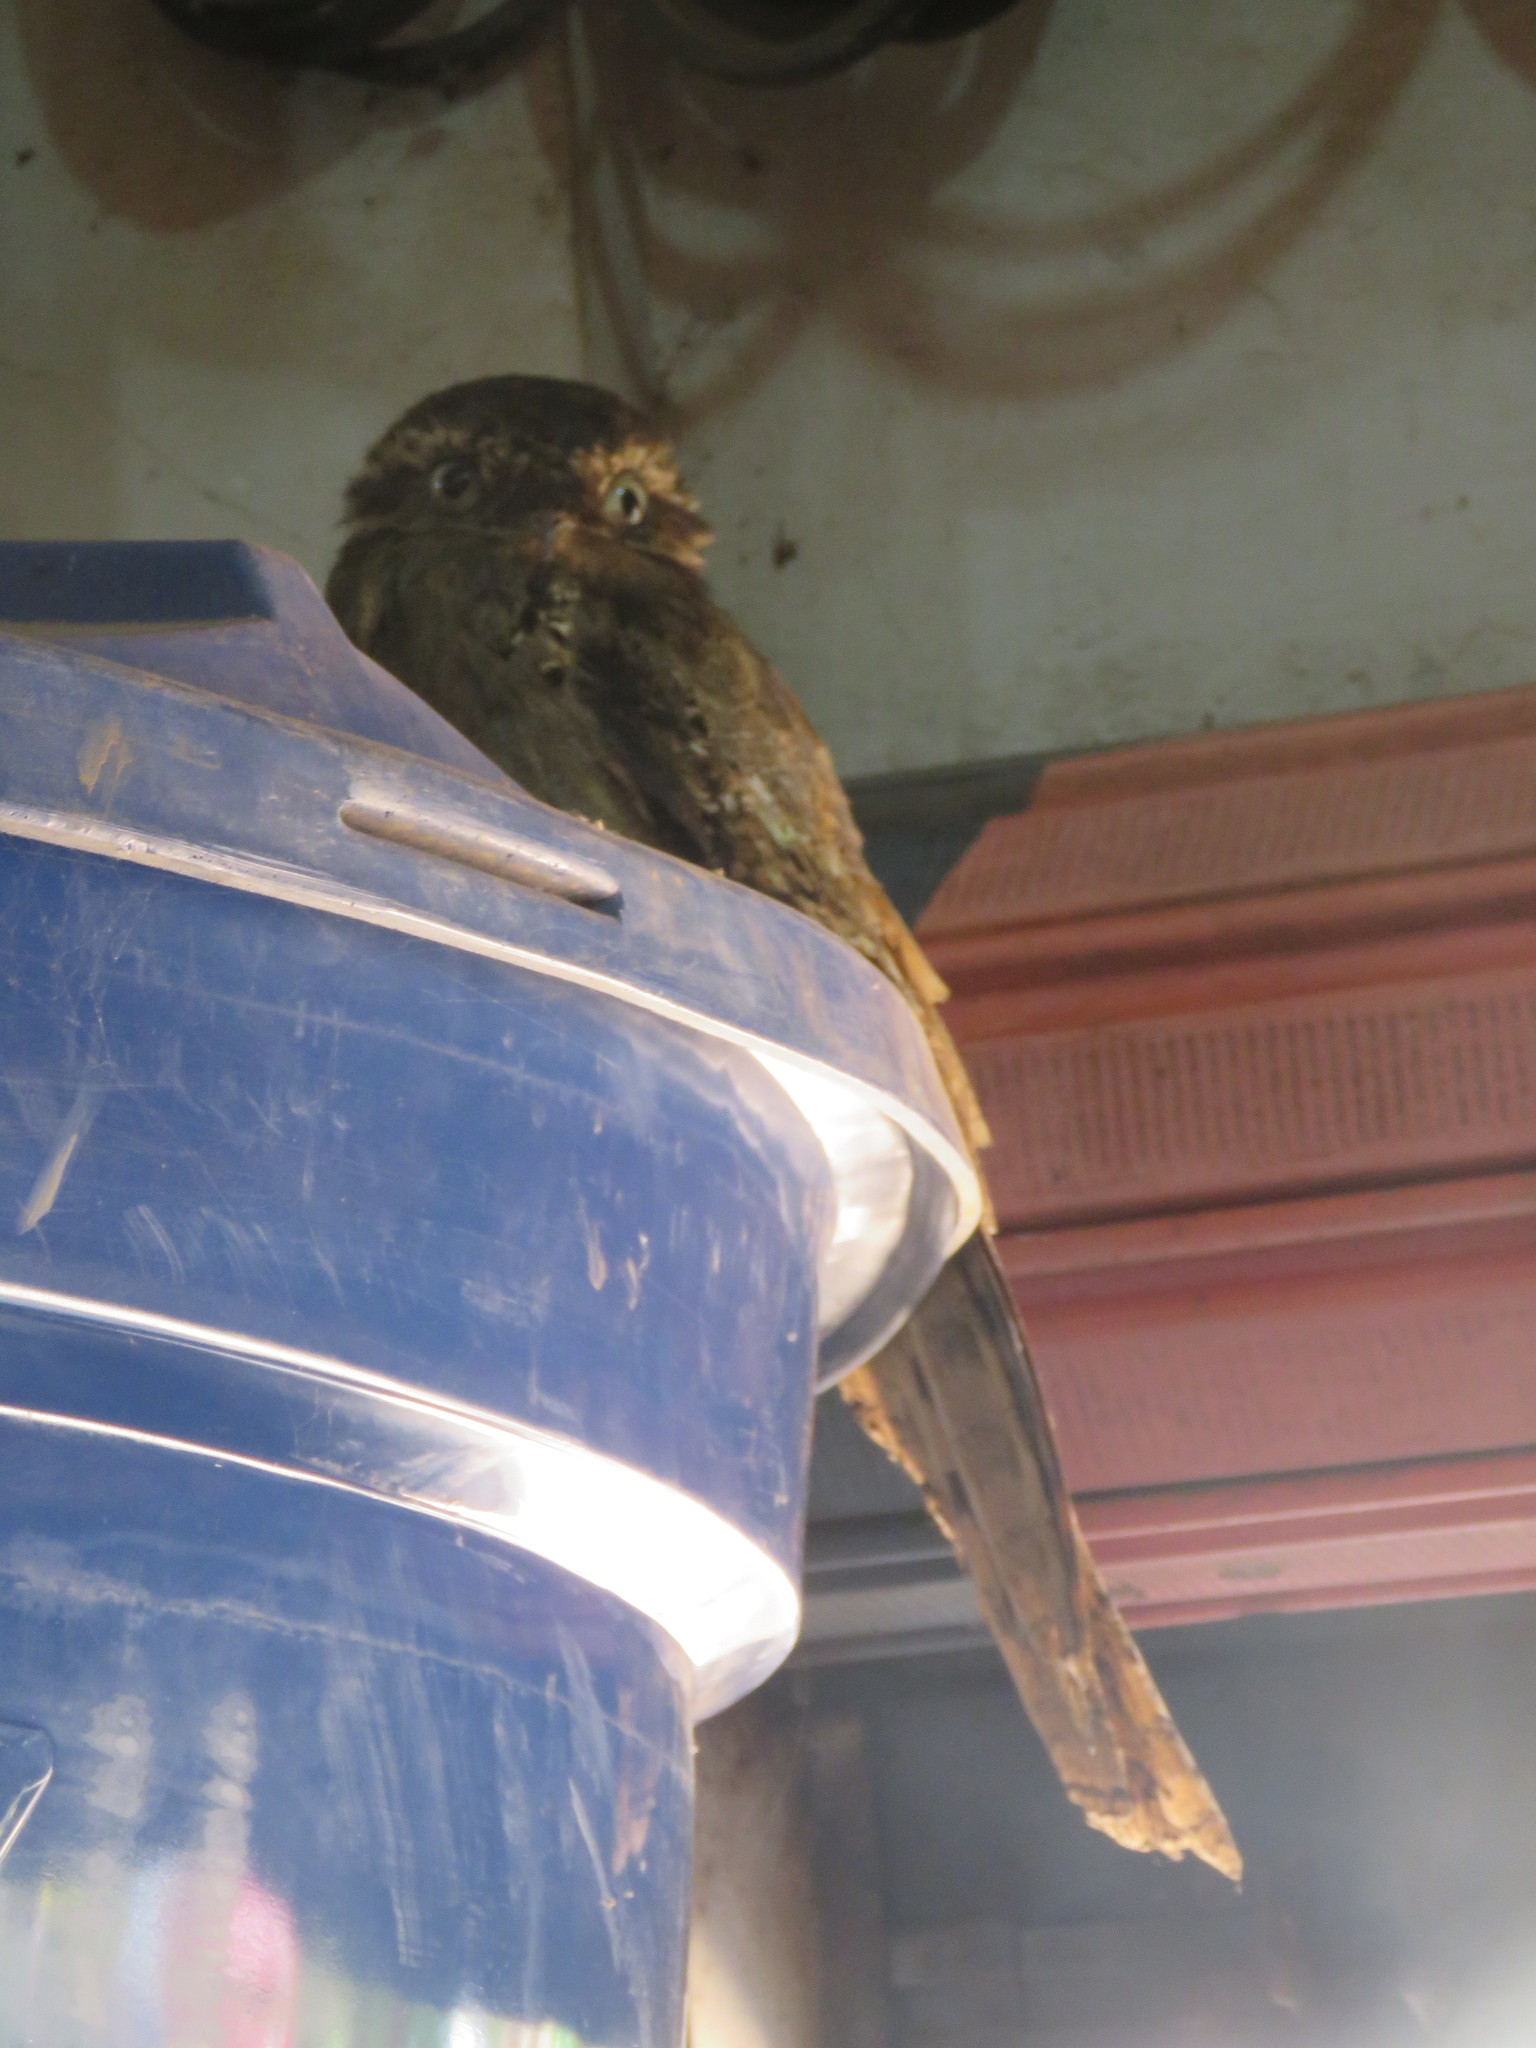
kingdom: Animalia
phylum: Chordata
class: Aves
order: Nyctibiiformes
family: Nyctibiidae
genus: Nyctibius
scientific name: Nyctibius aethereus
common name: Long-tailed potoo
